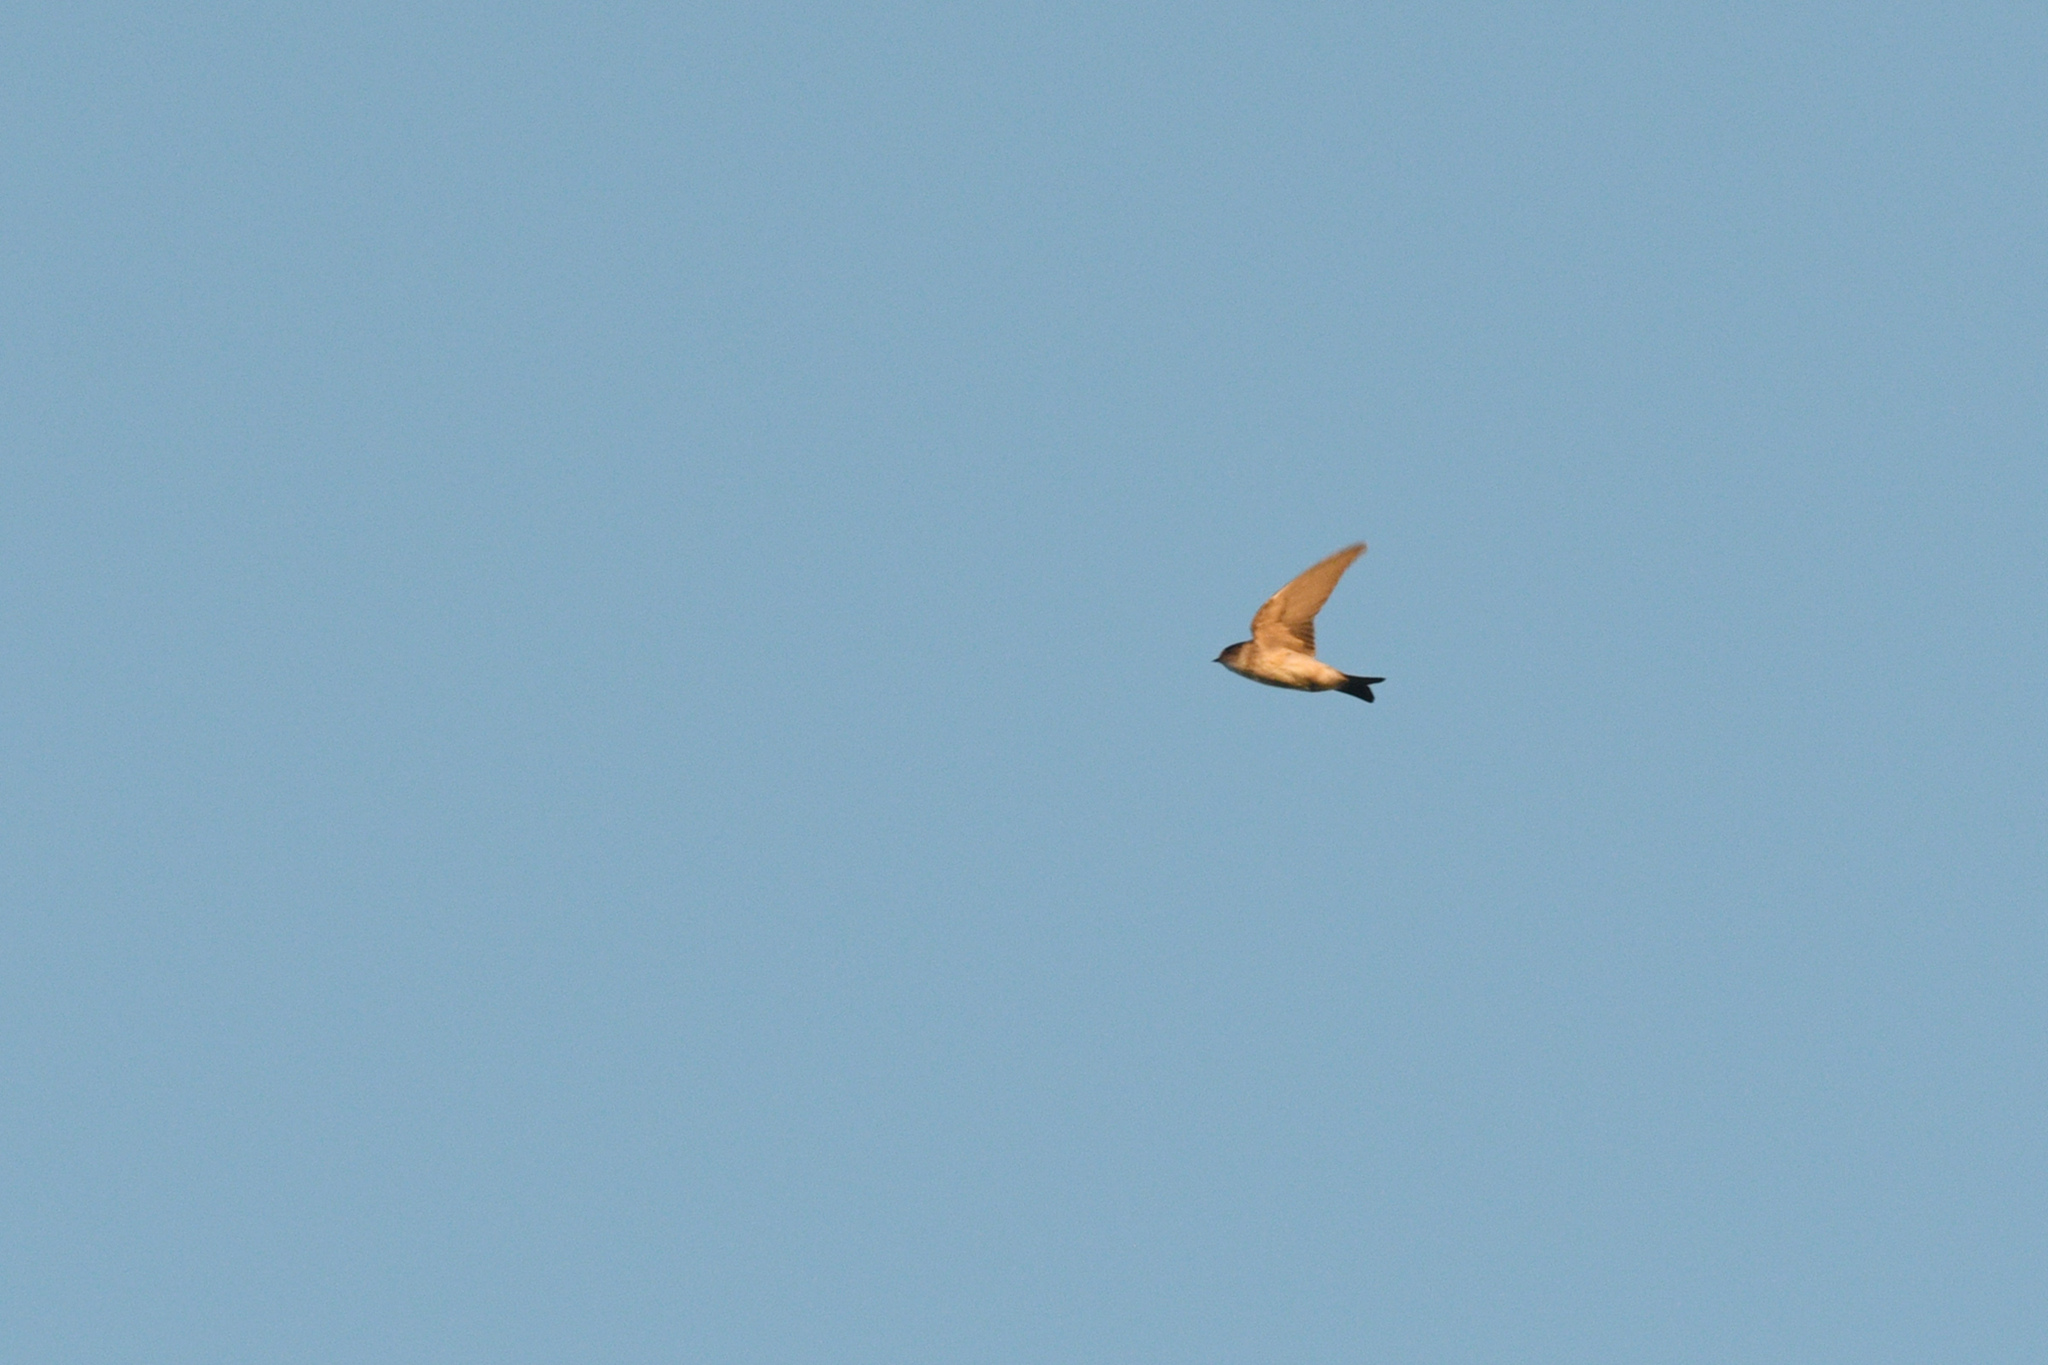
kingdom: Animalia
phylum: Chordata
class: Aves
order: Passeriformes
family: Hirundinidae
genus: Petrochelidon
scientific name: Petrochelidon nigricans
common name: Tree martin
